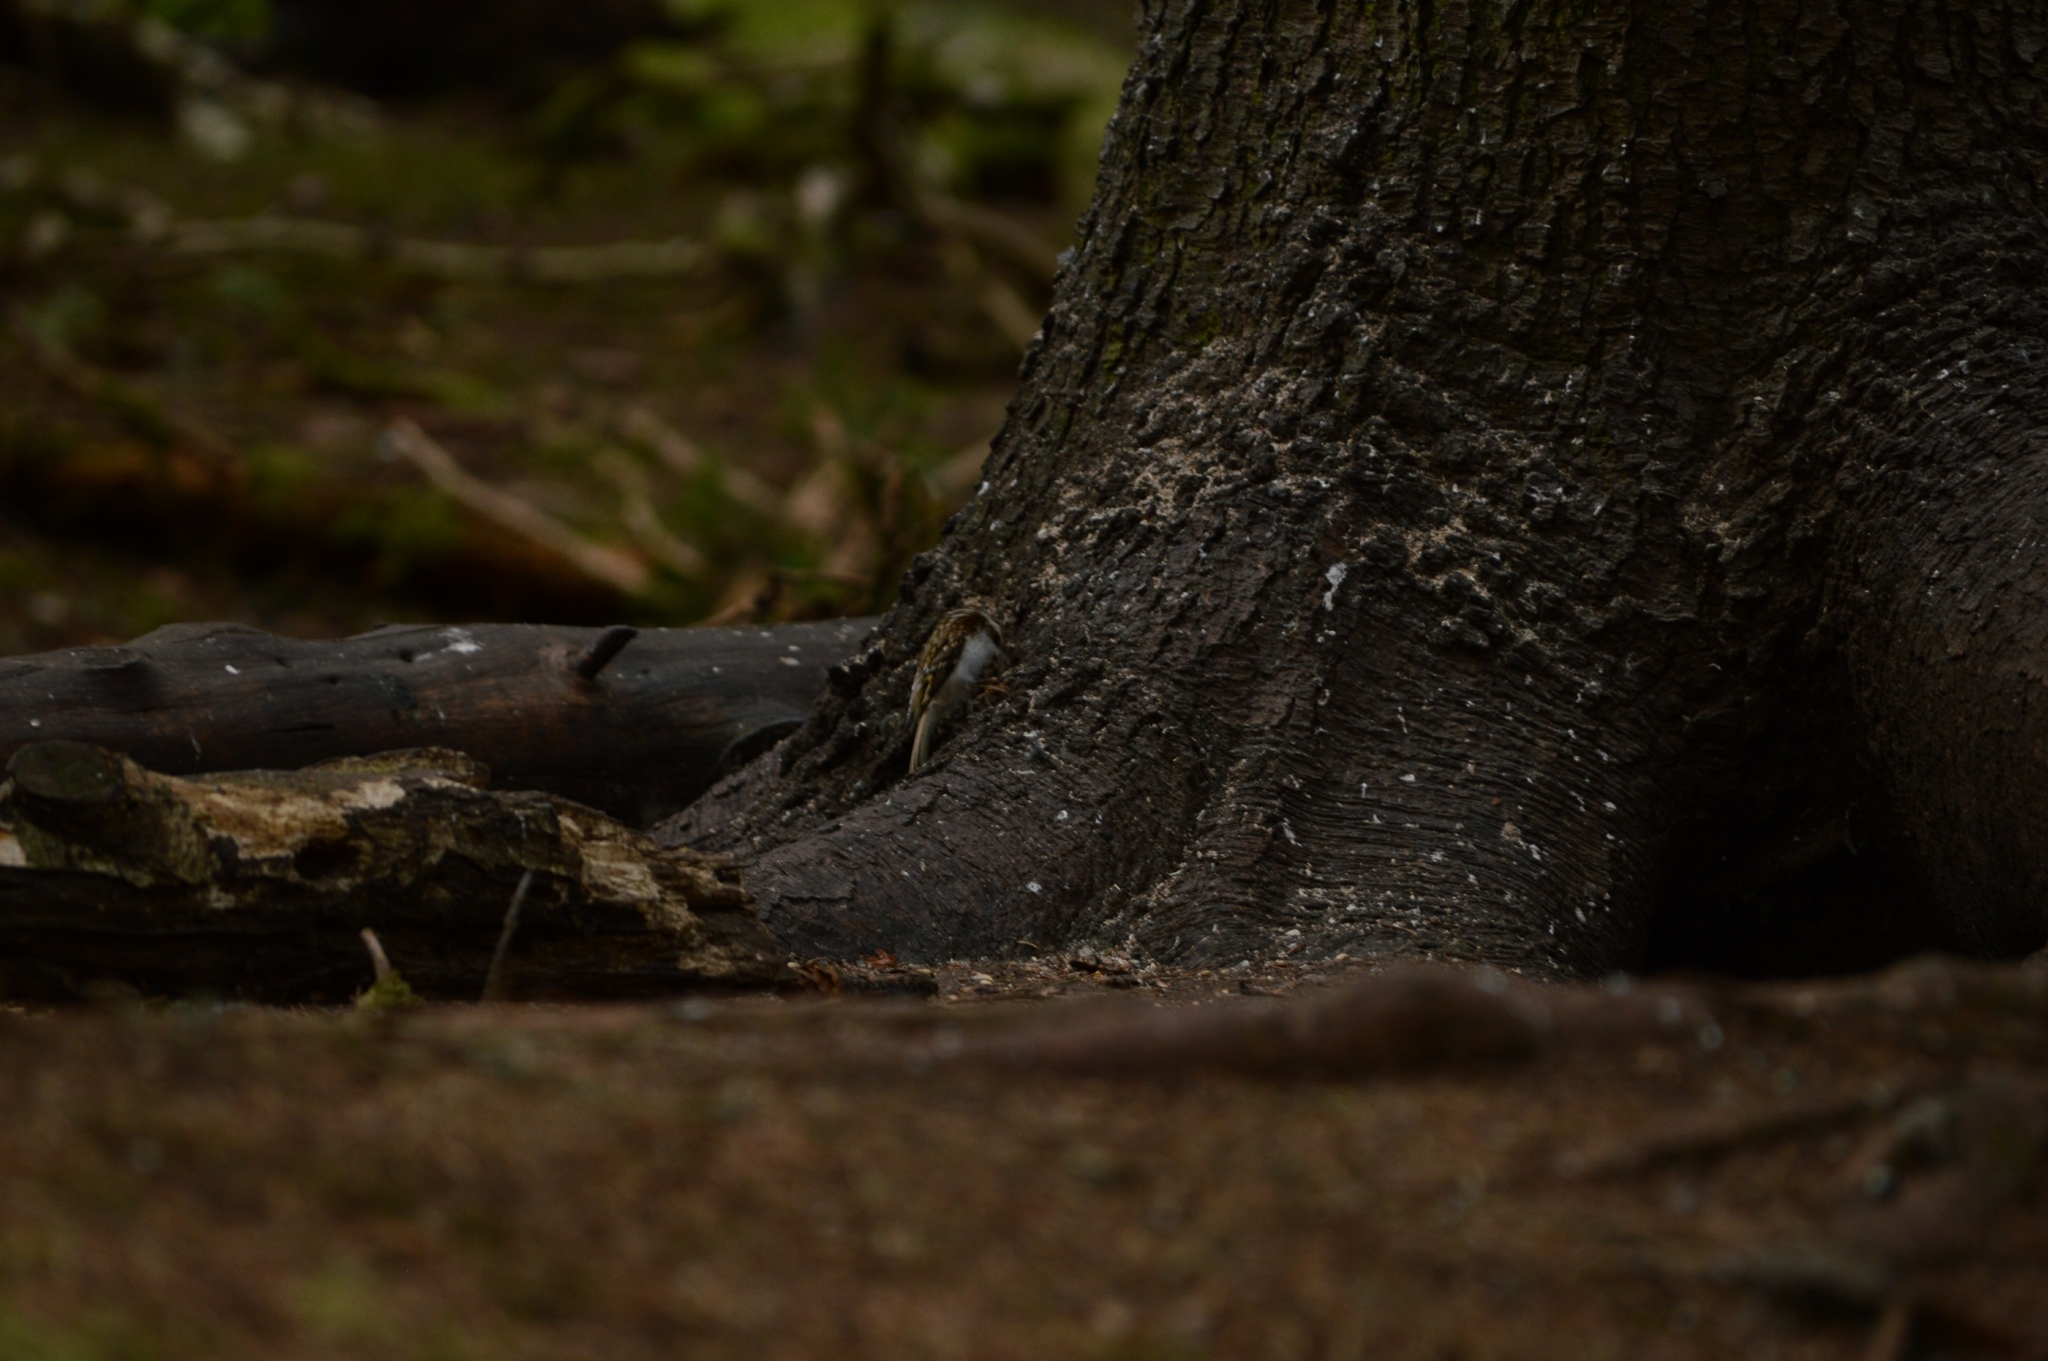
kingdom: Animalia
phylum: Chordata
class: Aves
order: Passeriformes
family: Certhiidae
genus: Certhia
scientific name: Certhia familiaris
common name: Eurasian treecreeper
